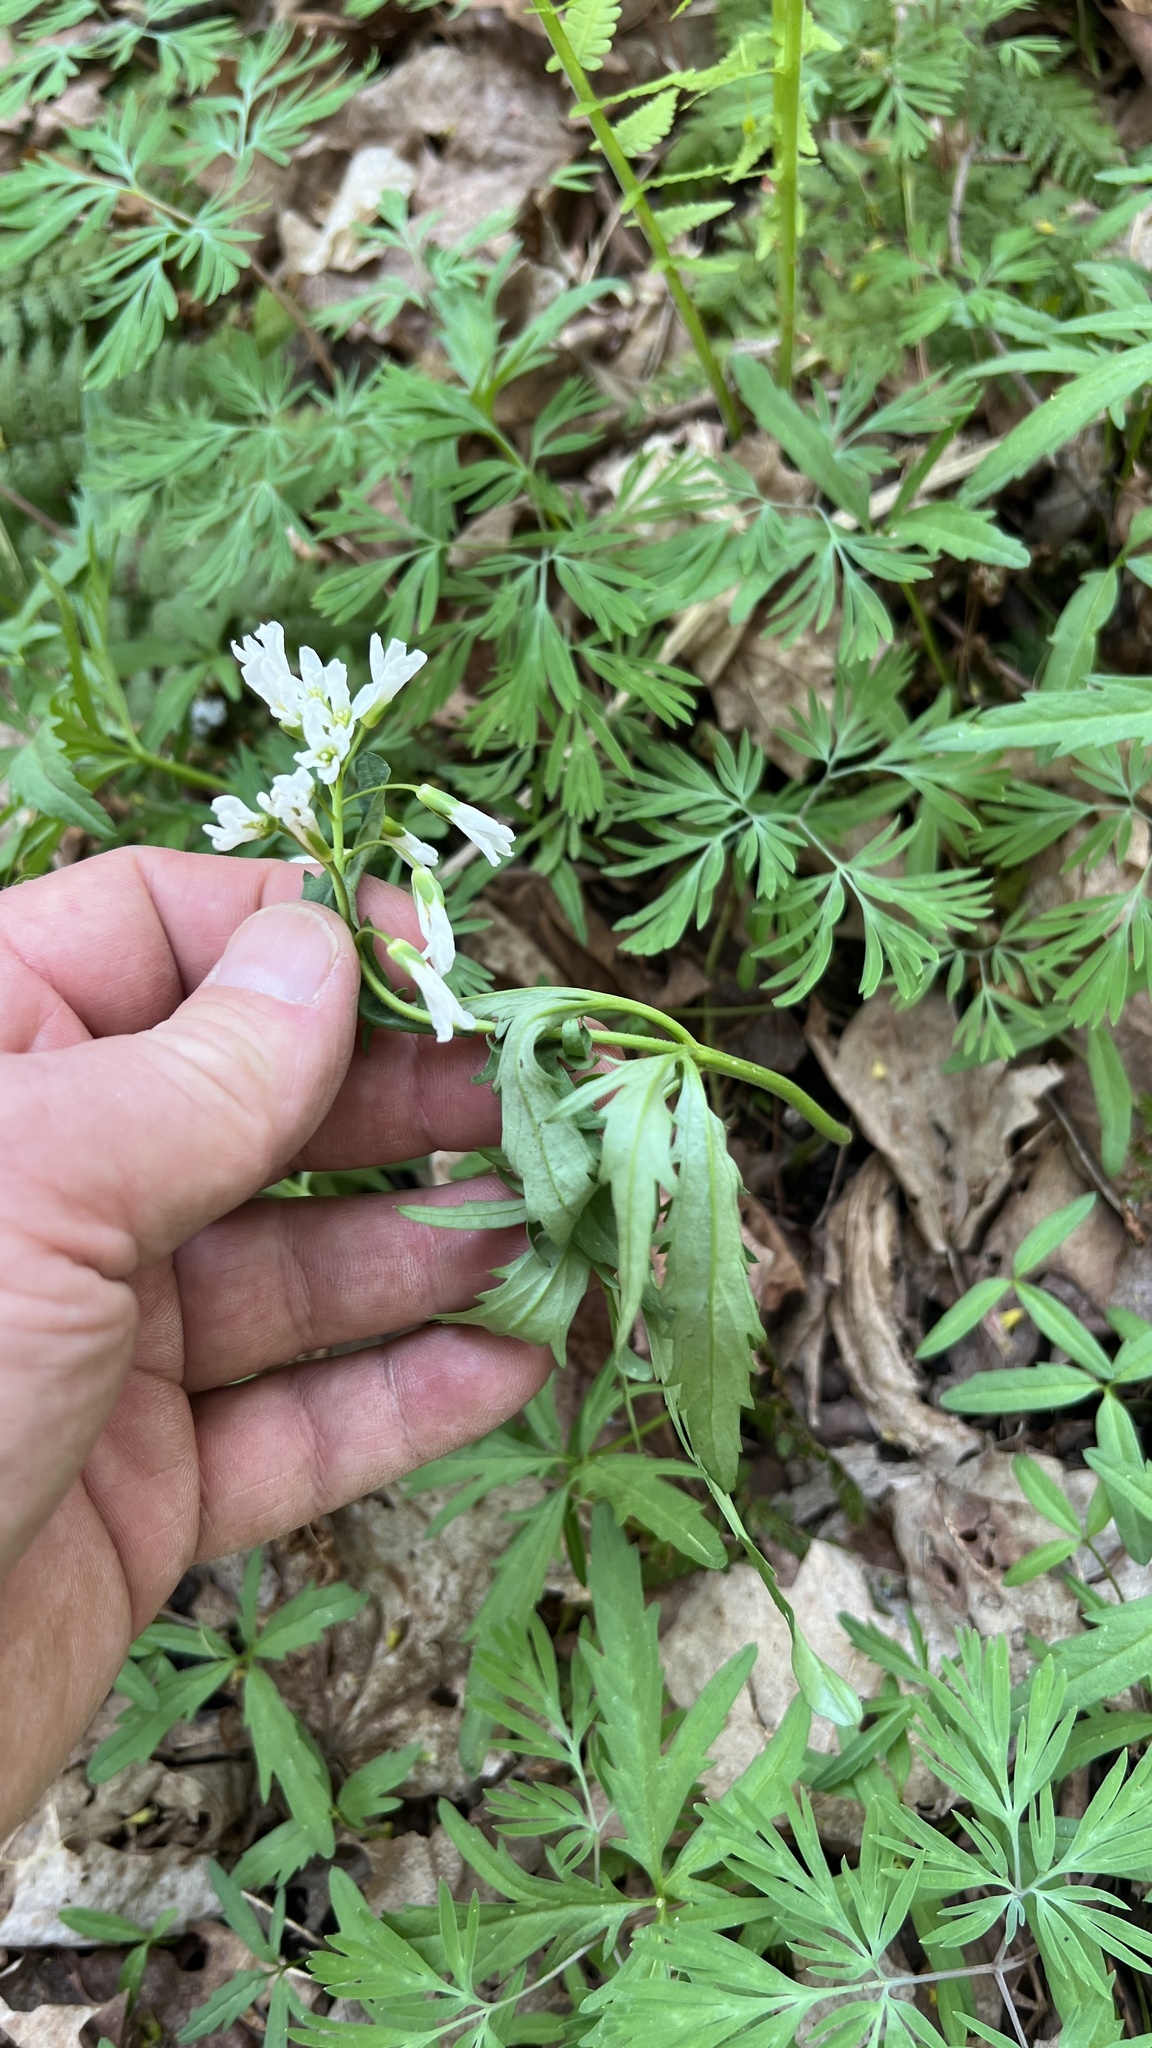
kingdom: Plantae
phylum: Tracheophyta
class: Magnoliopsida
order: Brassicales
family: Brassicaceae
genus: Cardamine
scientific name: Cardamine concatenata
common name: Cut-leaf toothcup
